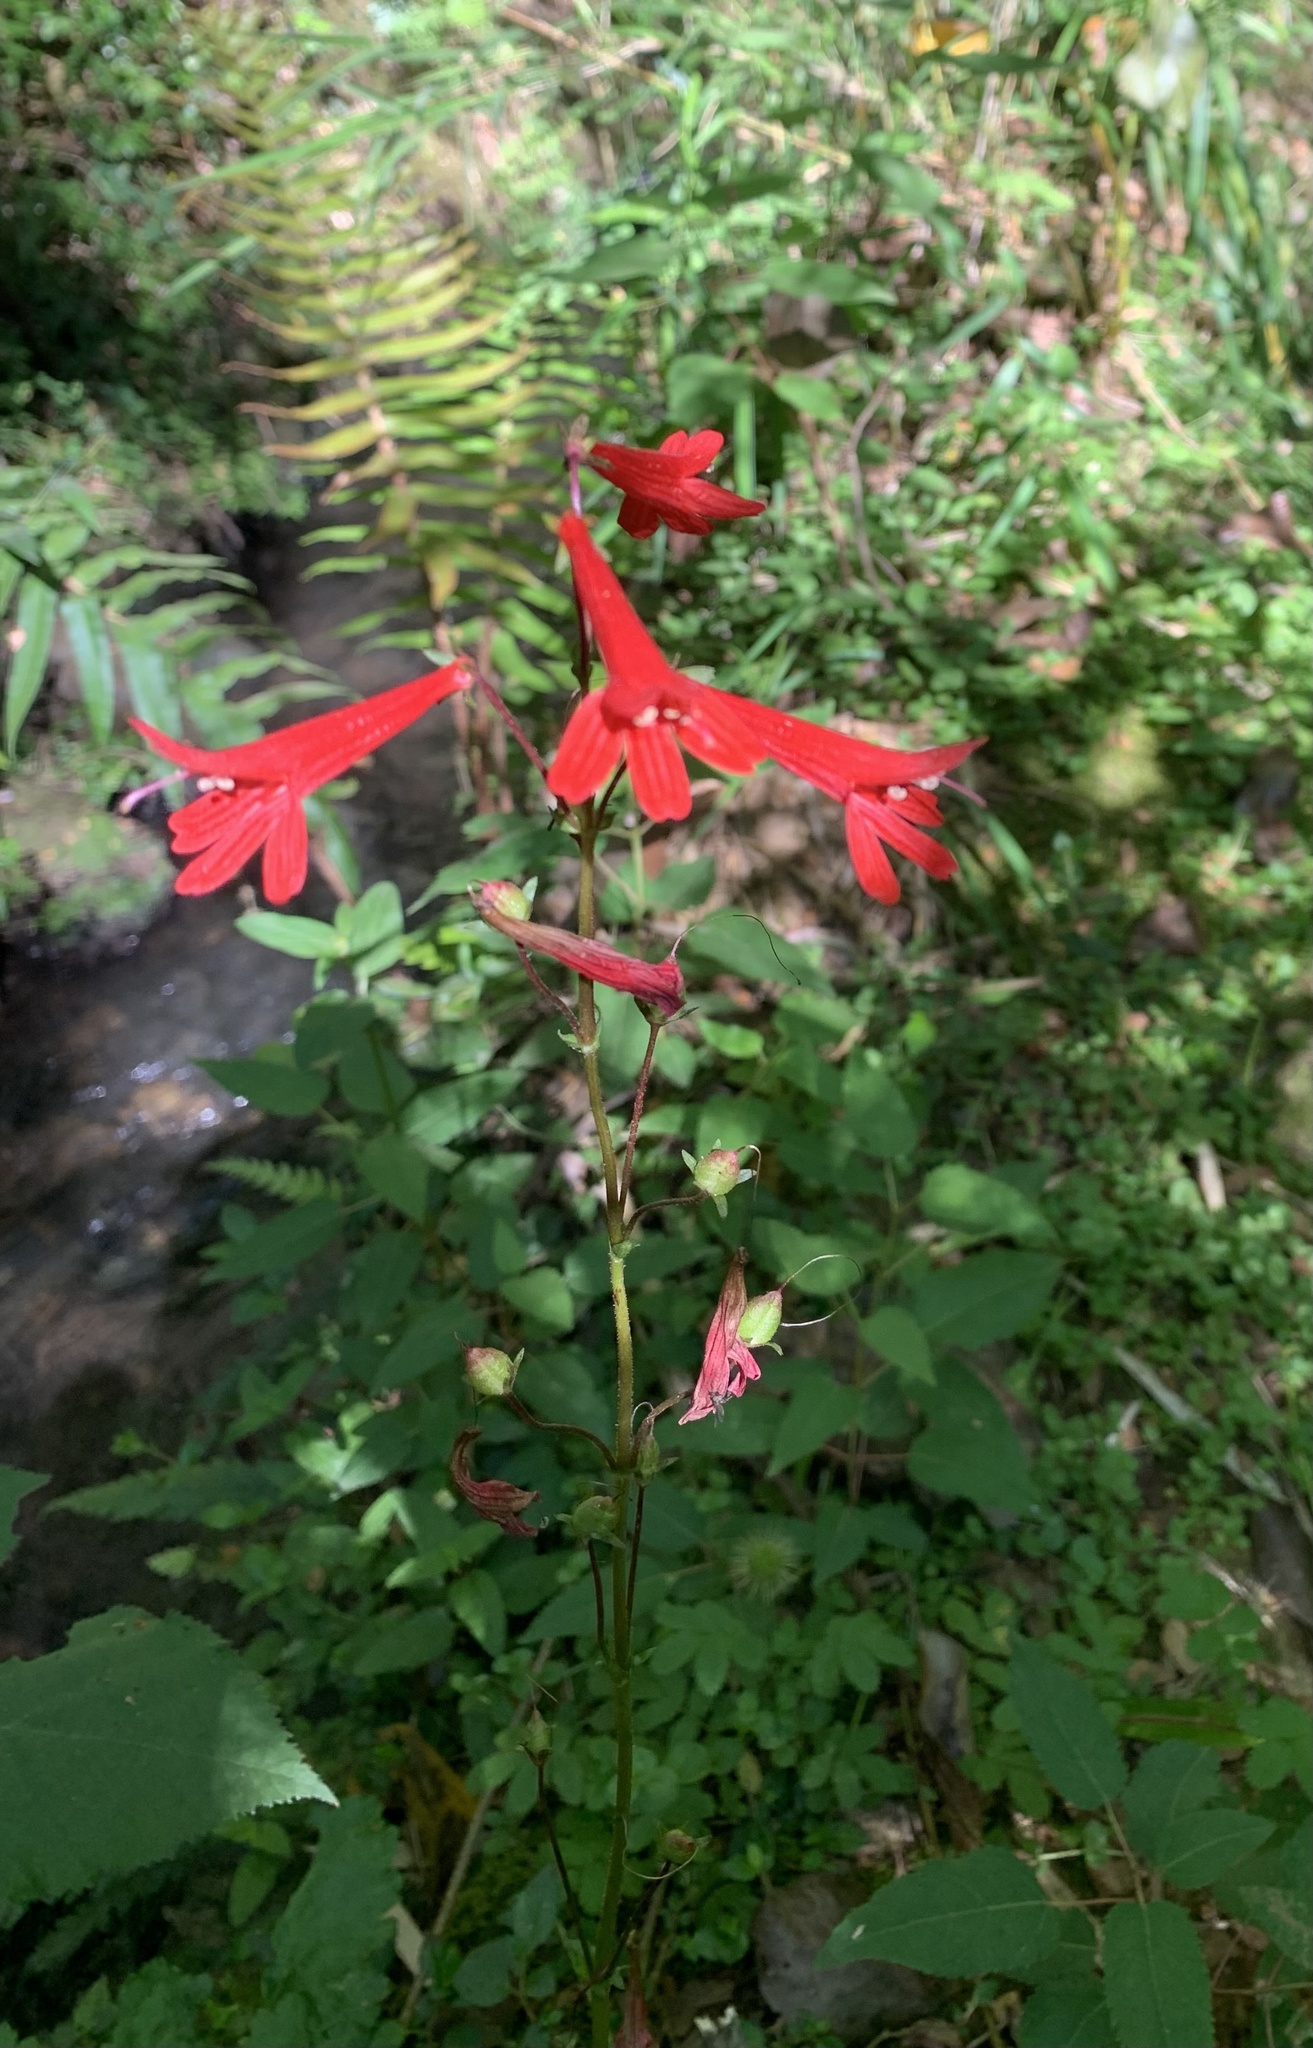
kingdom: Plantae
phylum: Tracheophyta
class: Magnoliopsida
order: Lamiales
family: Plantaginaceae
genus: Ourisia
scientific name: Ourisia ruellioides
